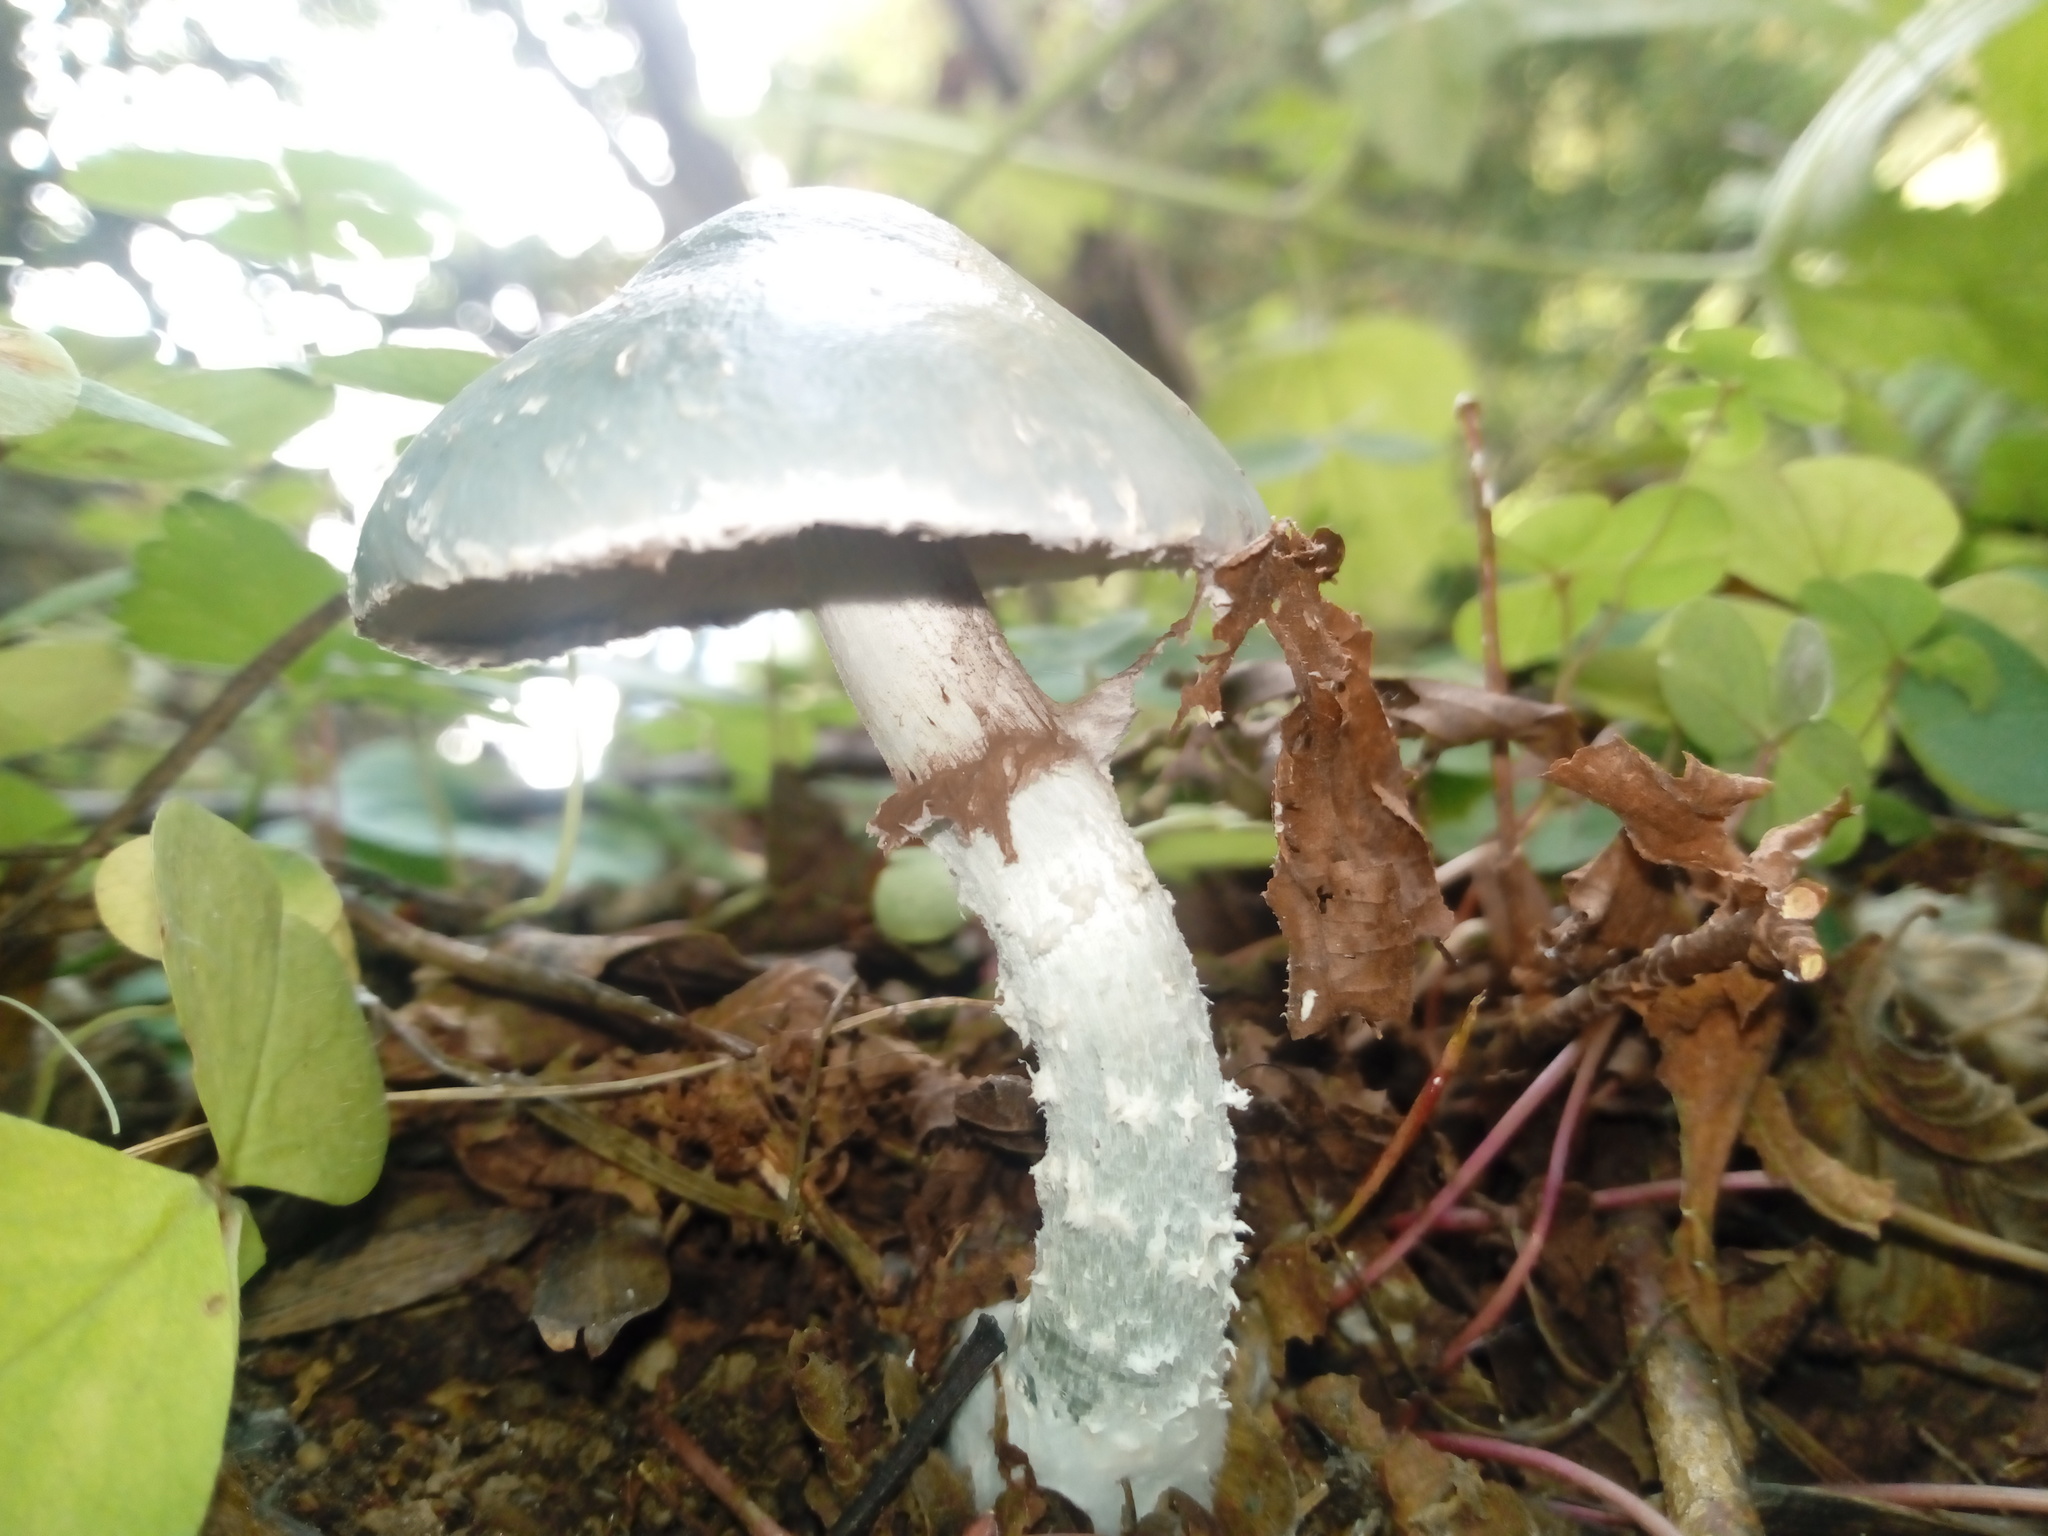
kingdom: Fungi
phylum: Basidiomycota
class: Agaricomycetes
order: Agaricales
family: Strophariaceae
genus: Stropharia
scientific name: Stropharia aeruginosa
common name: Verdigris roundhead
